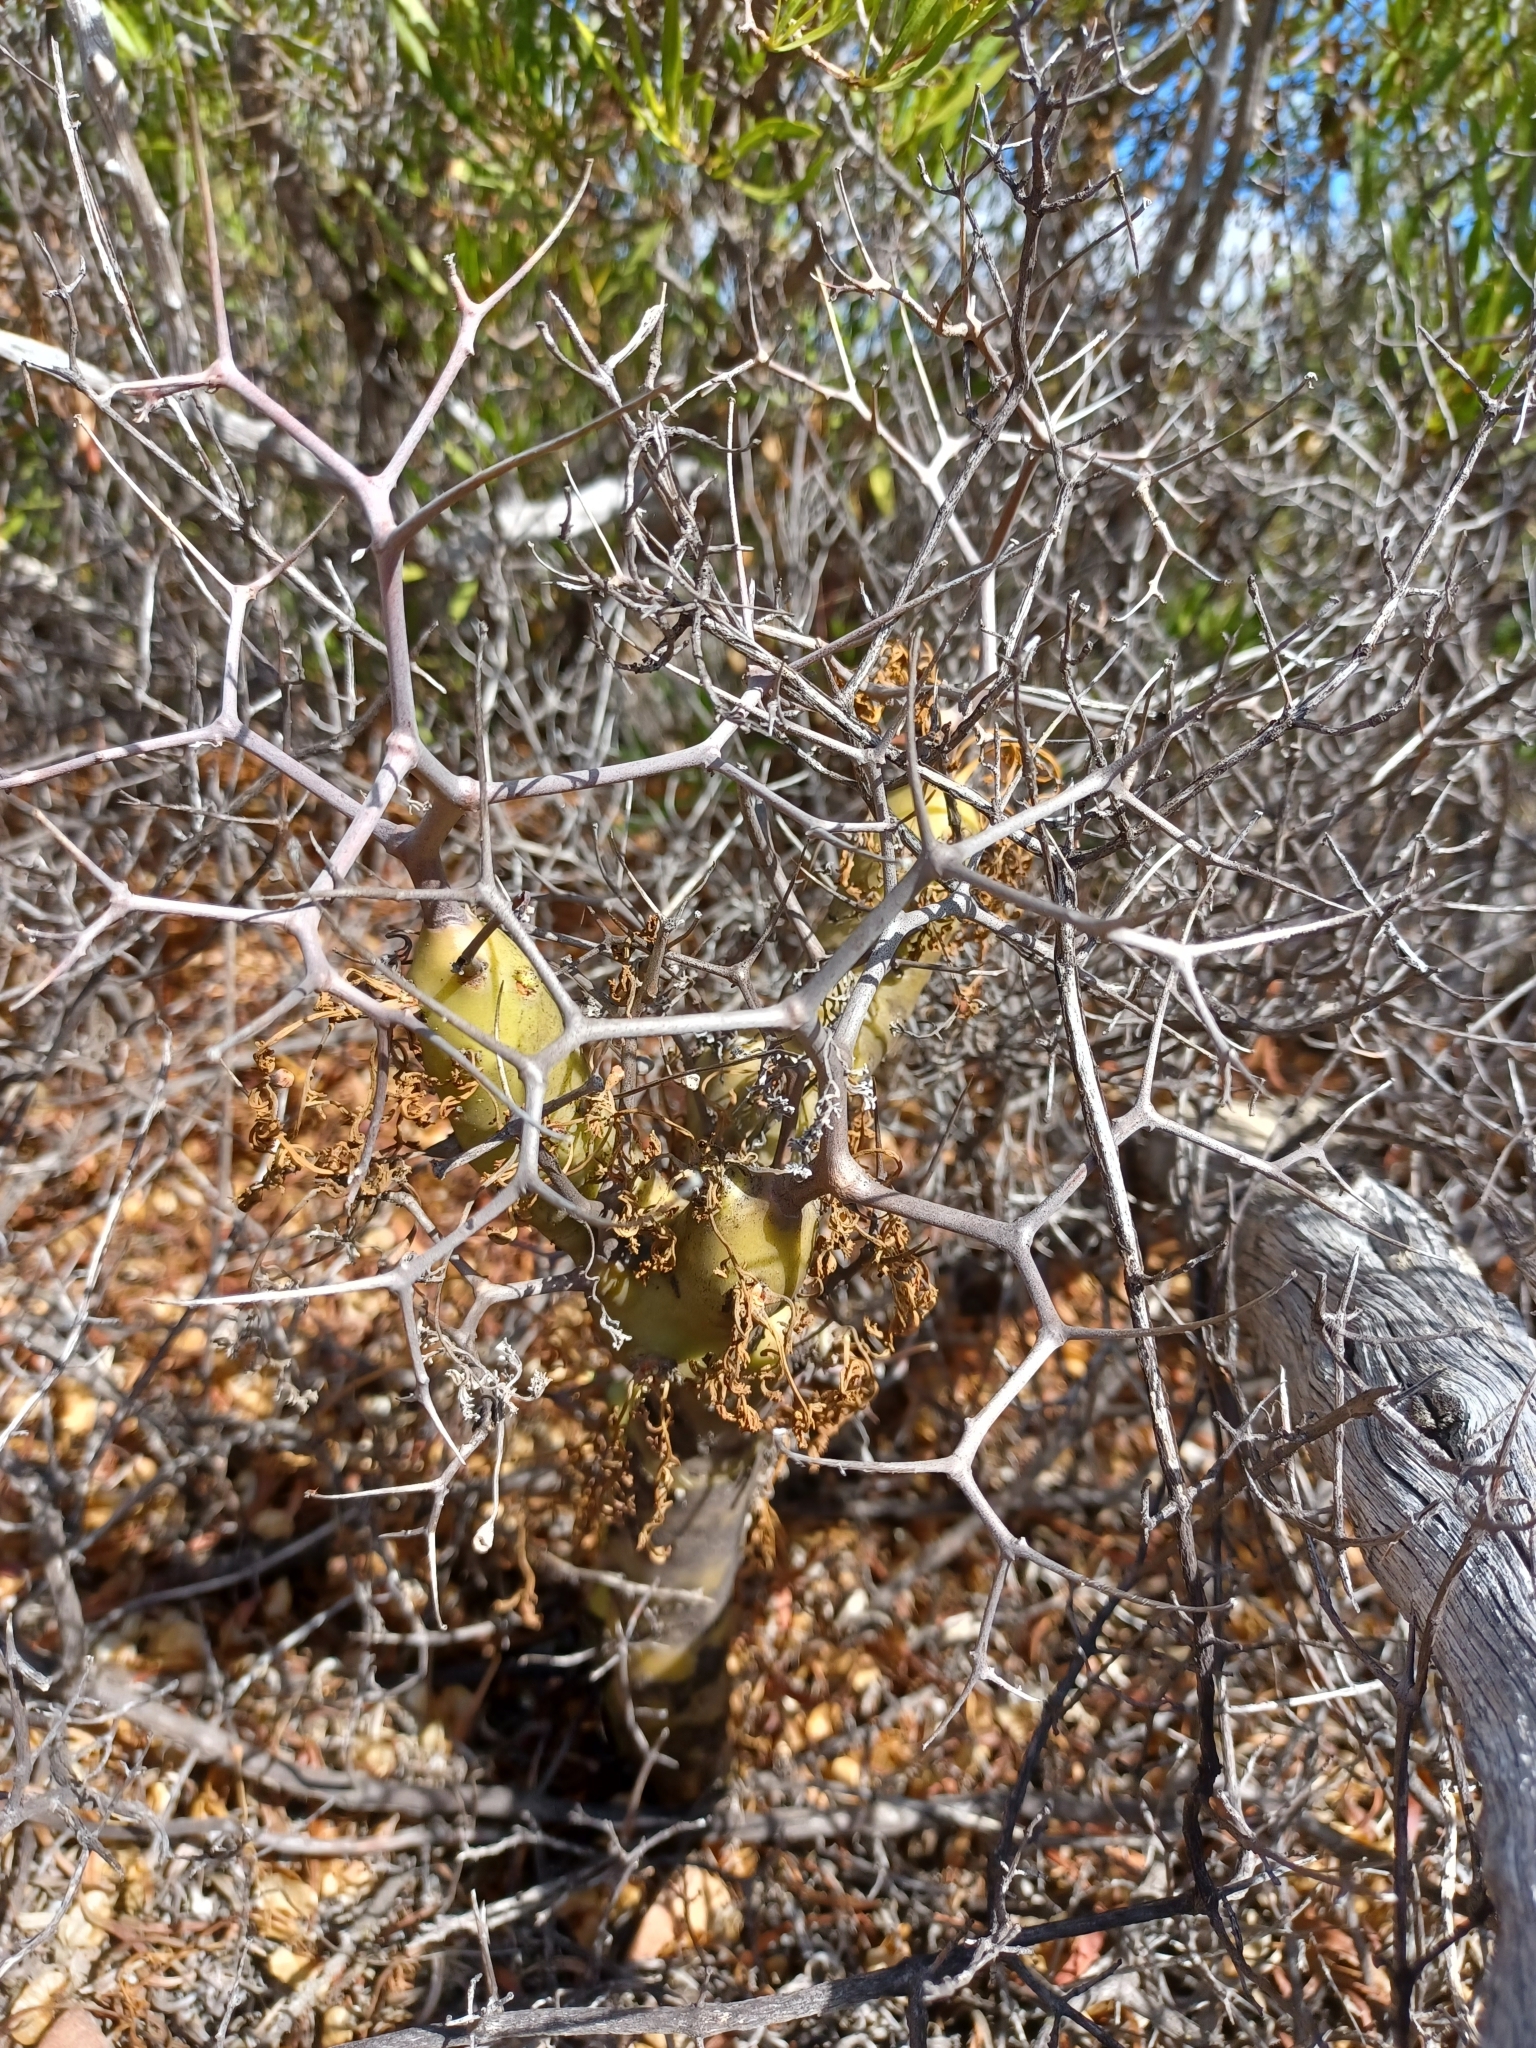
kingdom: Plantae
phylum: Tracheophyta
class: Magnoliopsida
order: Geraniales
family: Geraniaceae
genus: Pelargonium
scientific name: Pelargonium crithmifolium
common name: Samphire-leaf pelargonium
